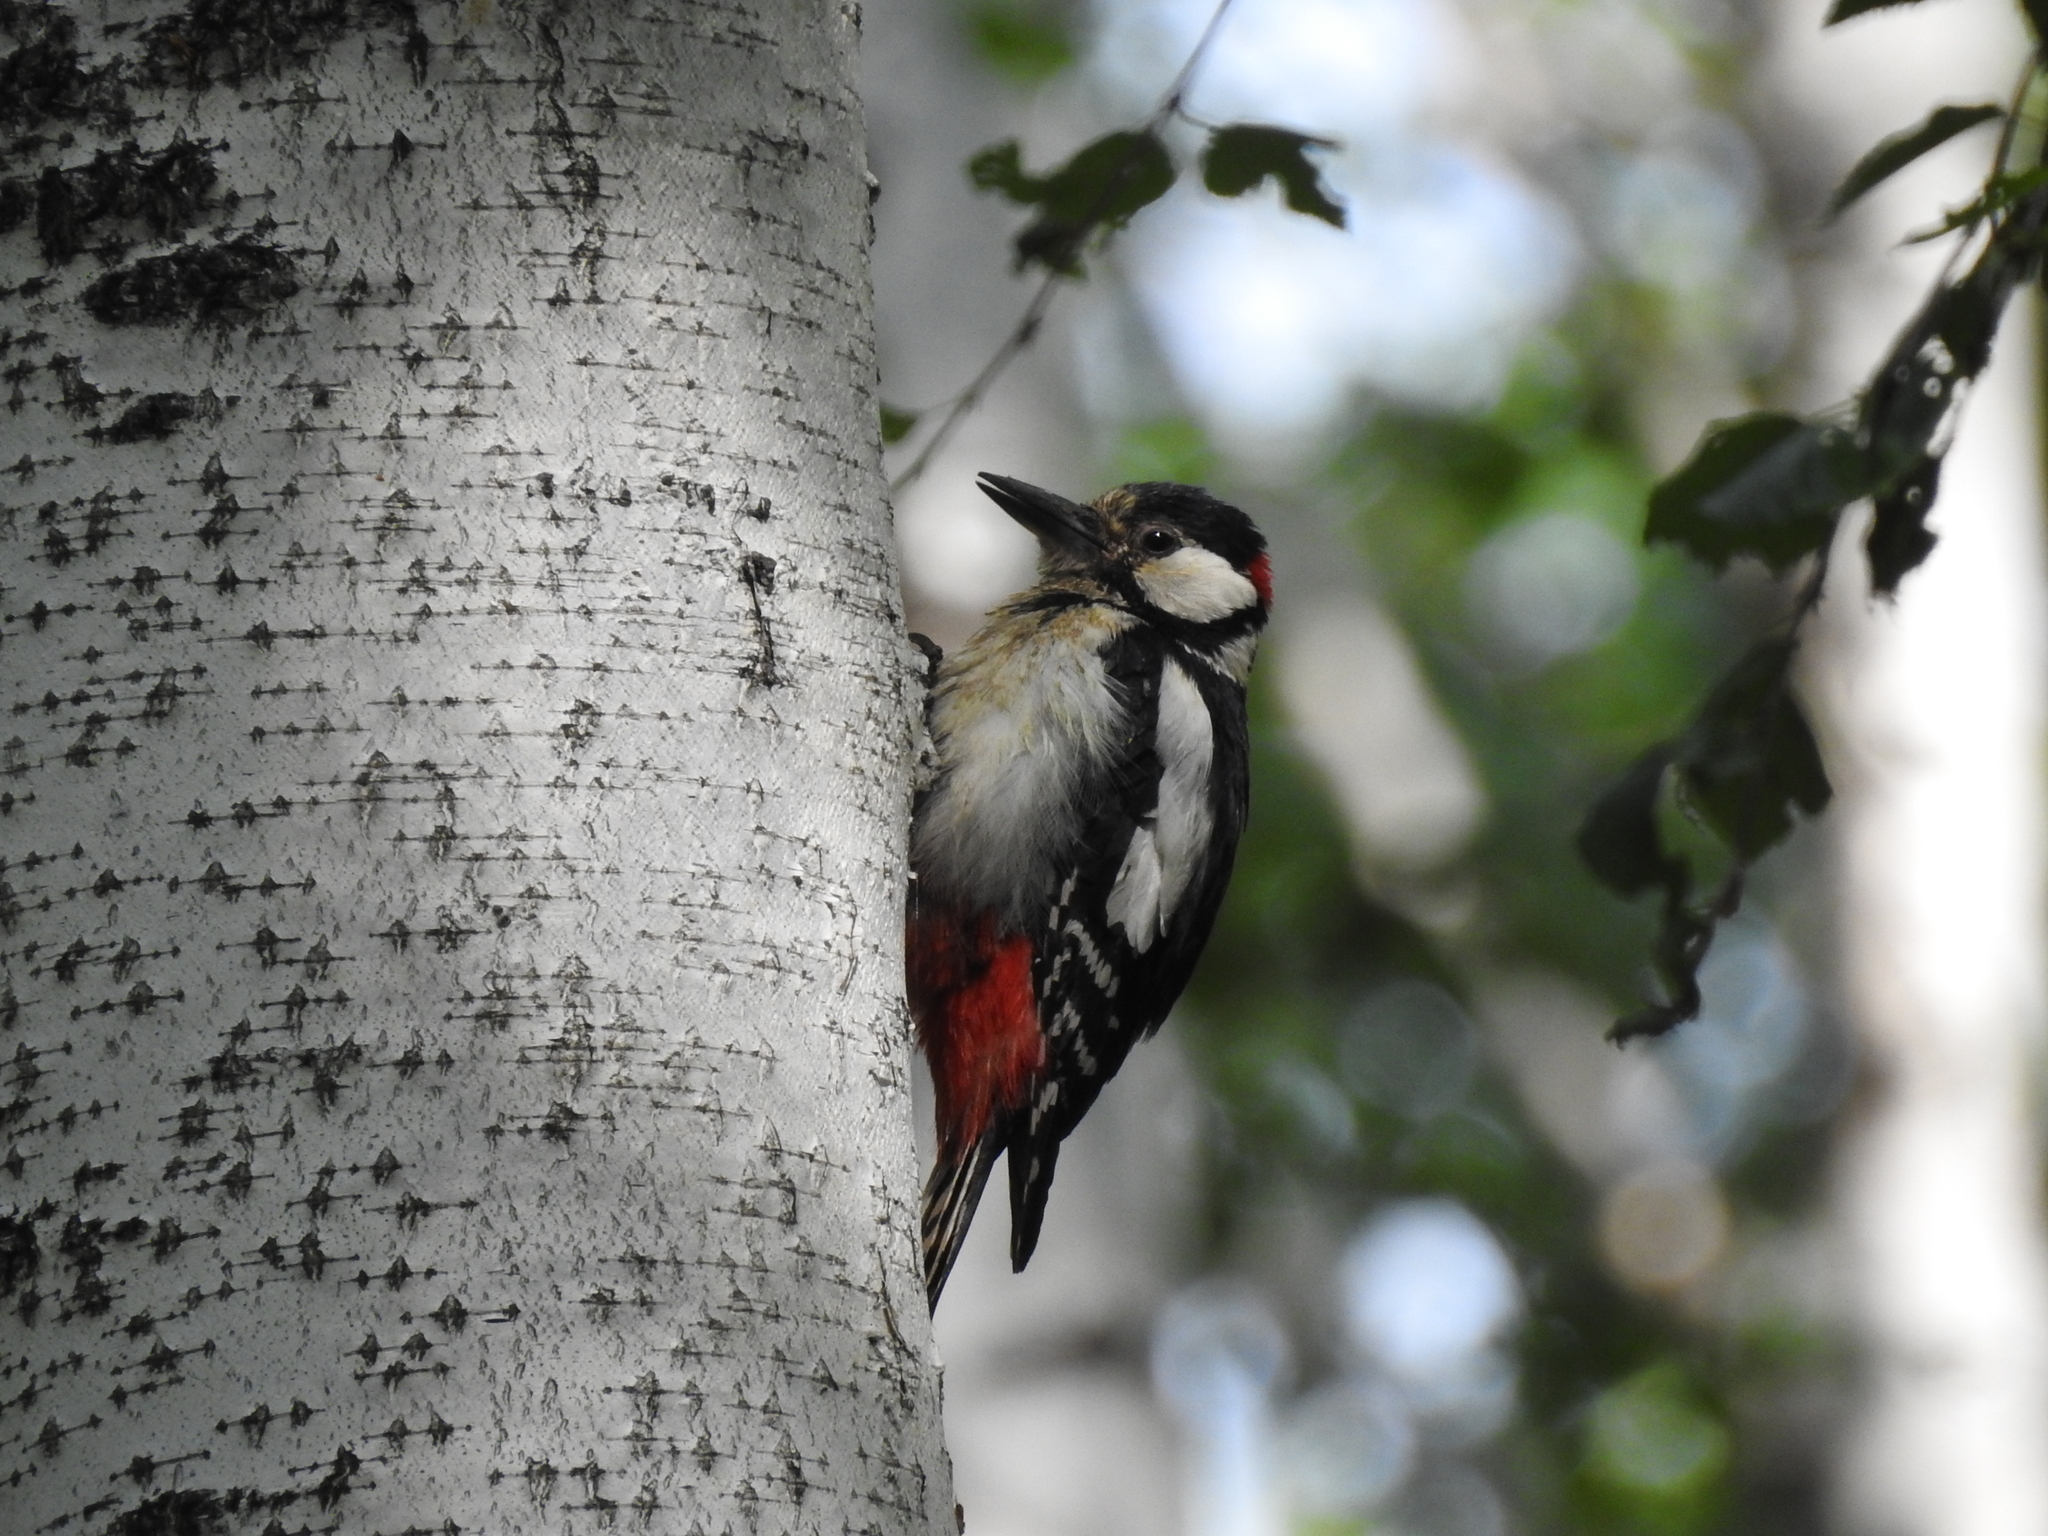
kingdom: Animalia
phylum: Chordata
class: Aves
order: Piciformes
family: Picidae
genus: Dendrocopos
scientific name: Dendrocopos major
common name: Great spotted woodpecker
